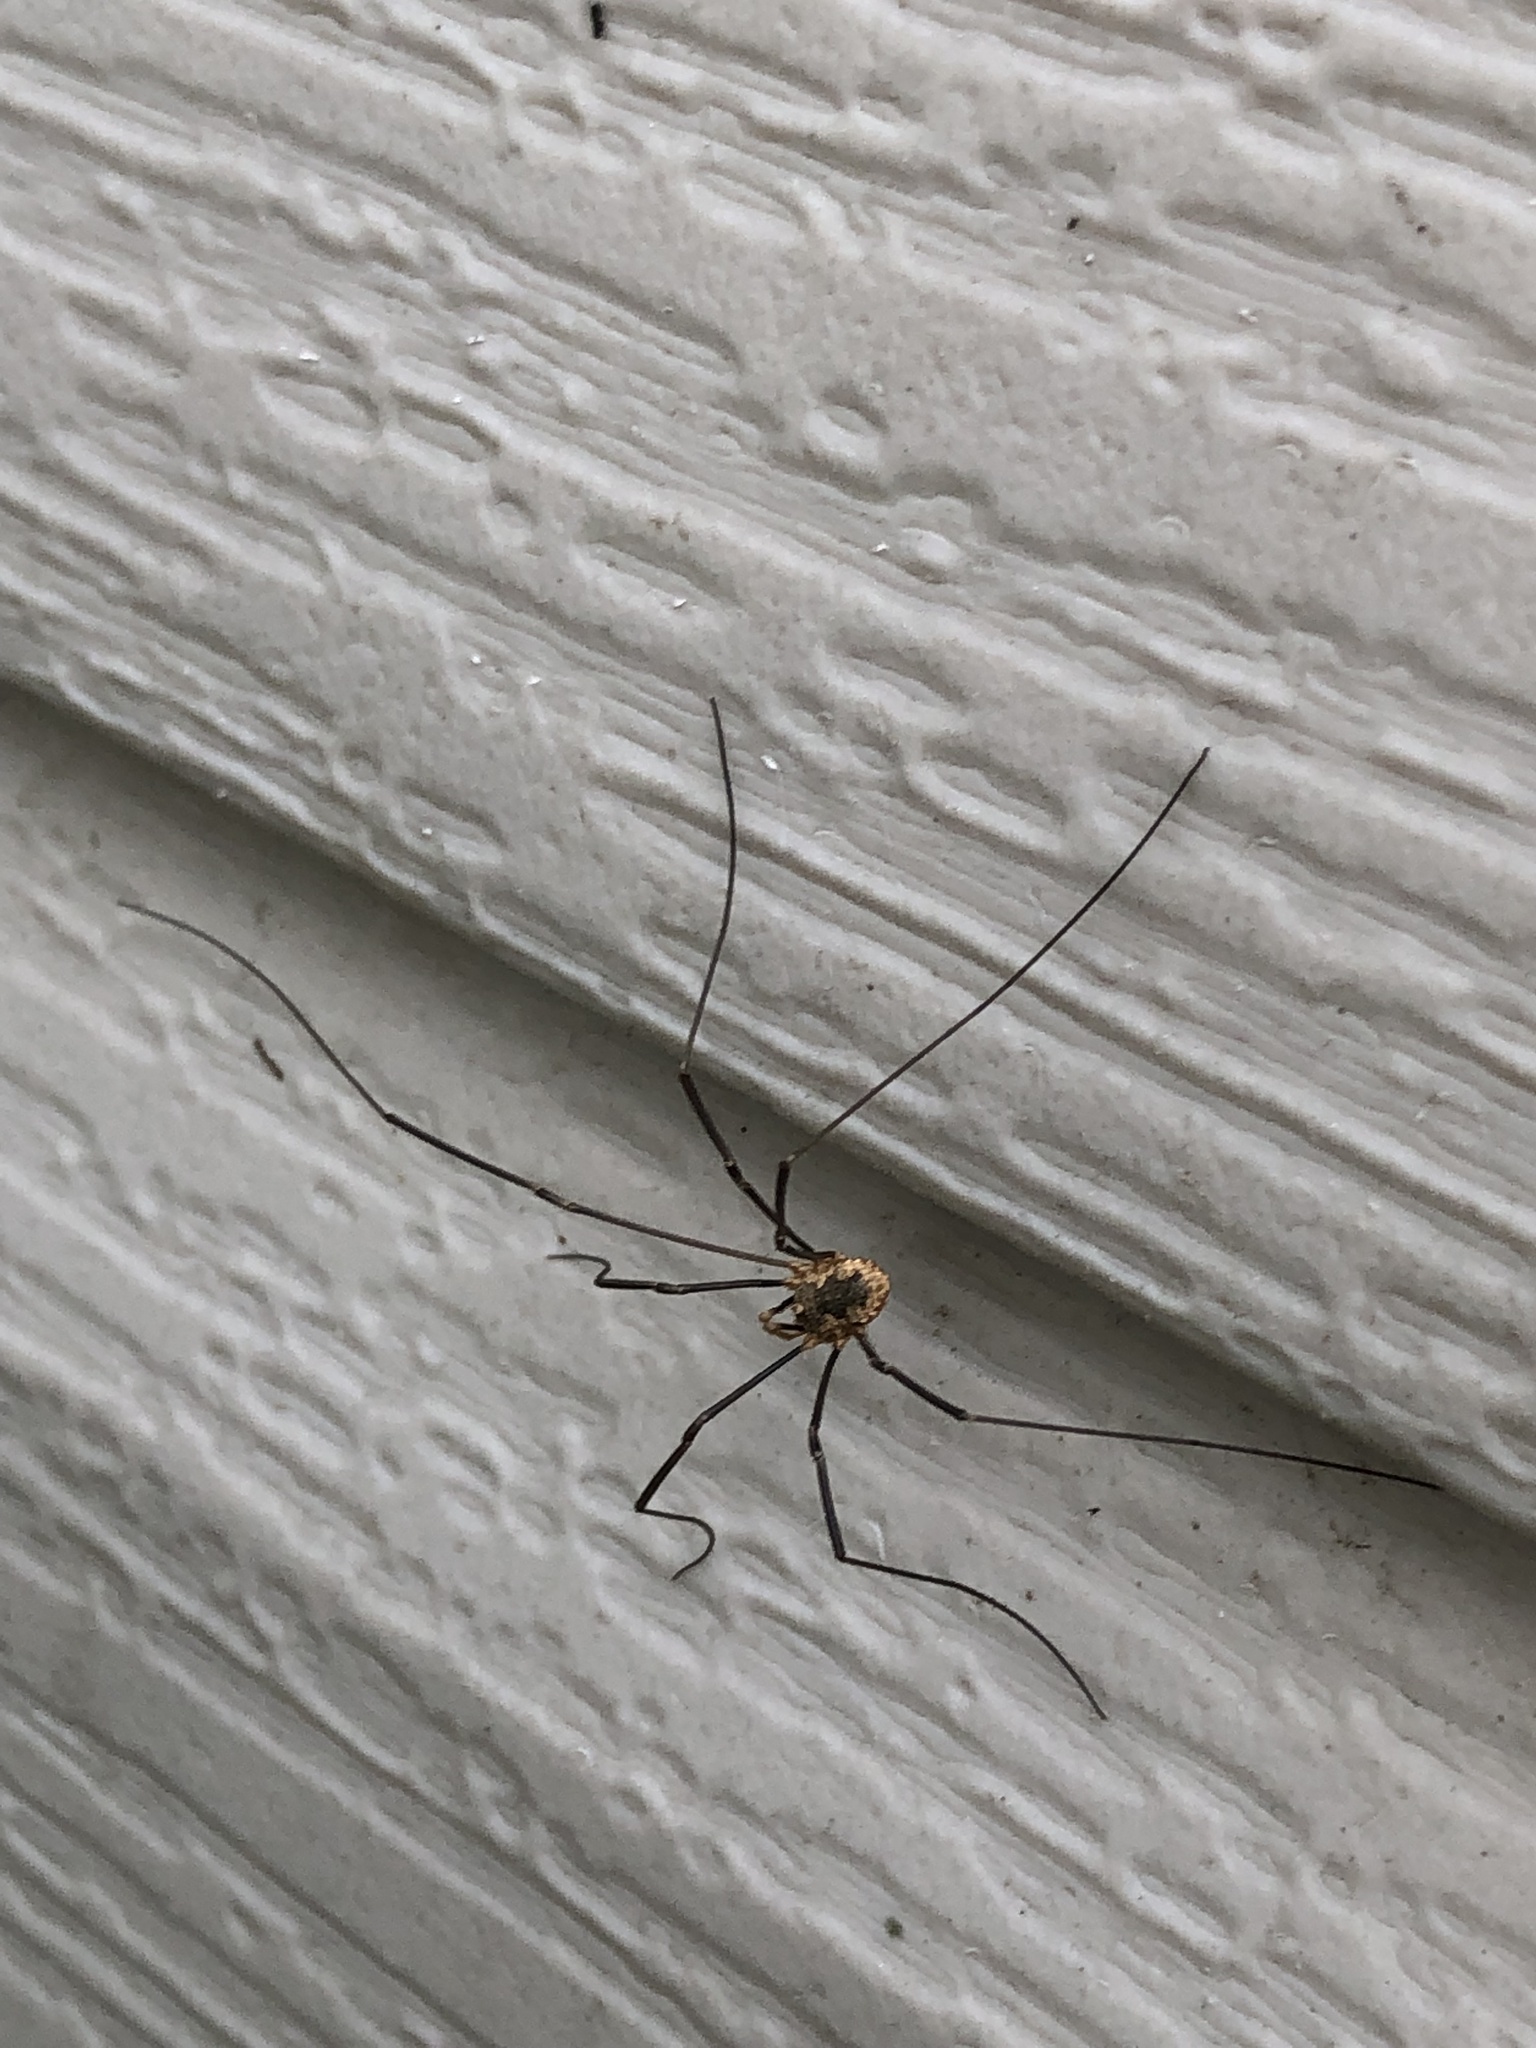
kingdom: Animalia
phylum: Arthropoda
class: Arachnida
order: Opiliones
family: Phalangiidae
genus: Phalangium
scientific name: Phalangium opilio
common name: Daddy longleg
